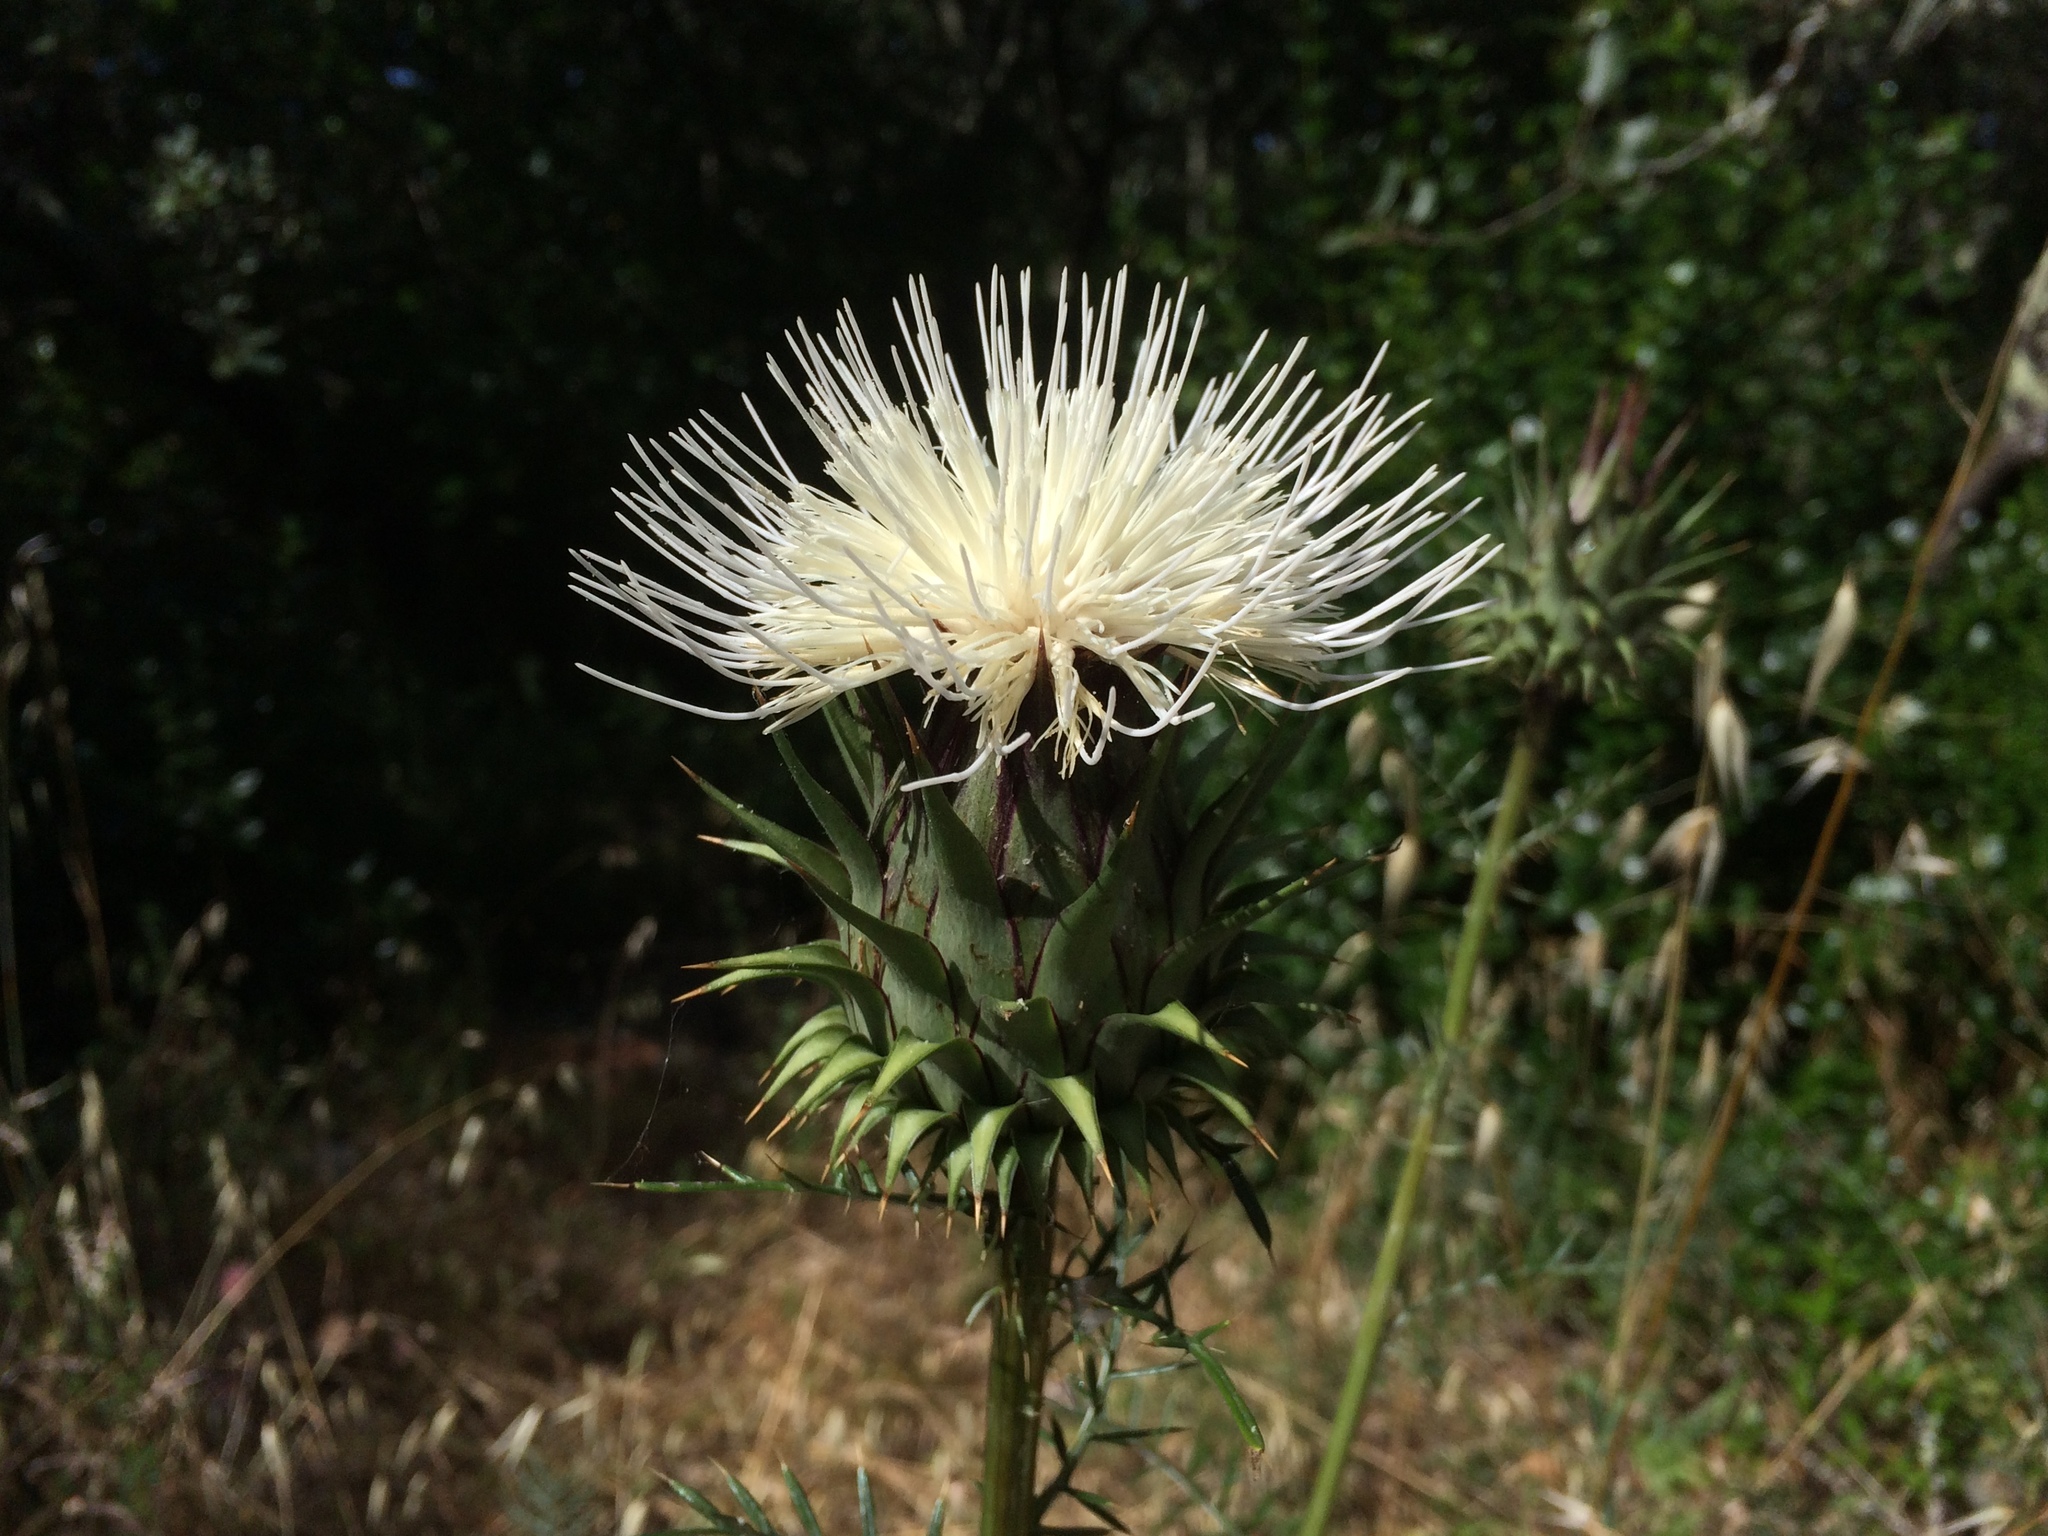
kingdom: Plantae
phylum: Tracheophyta
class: Magnoliopsida
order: Asterales
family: Asteraceae
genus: Cynara
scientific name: Cynara humilis
